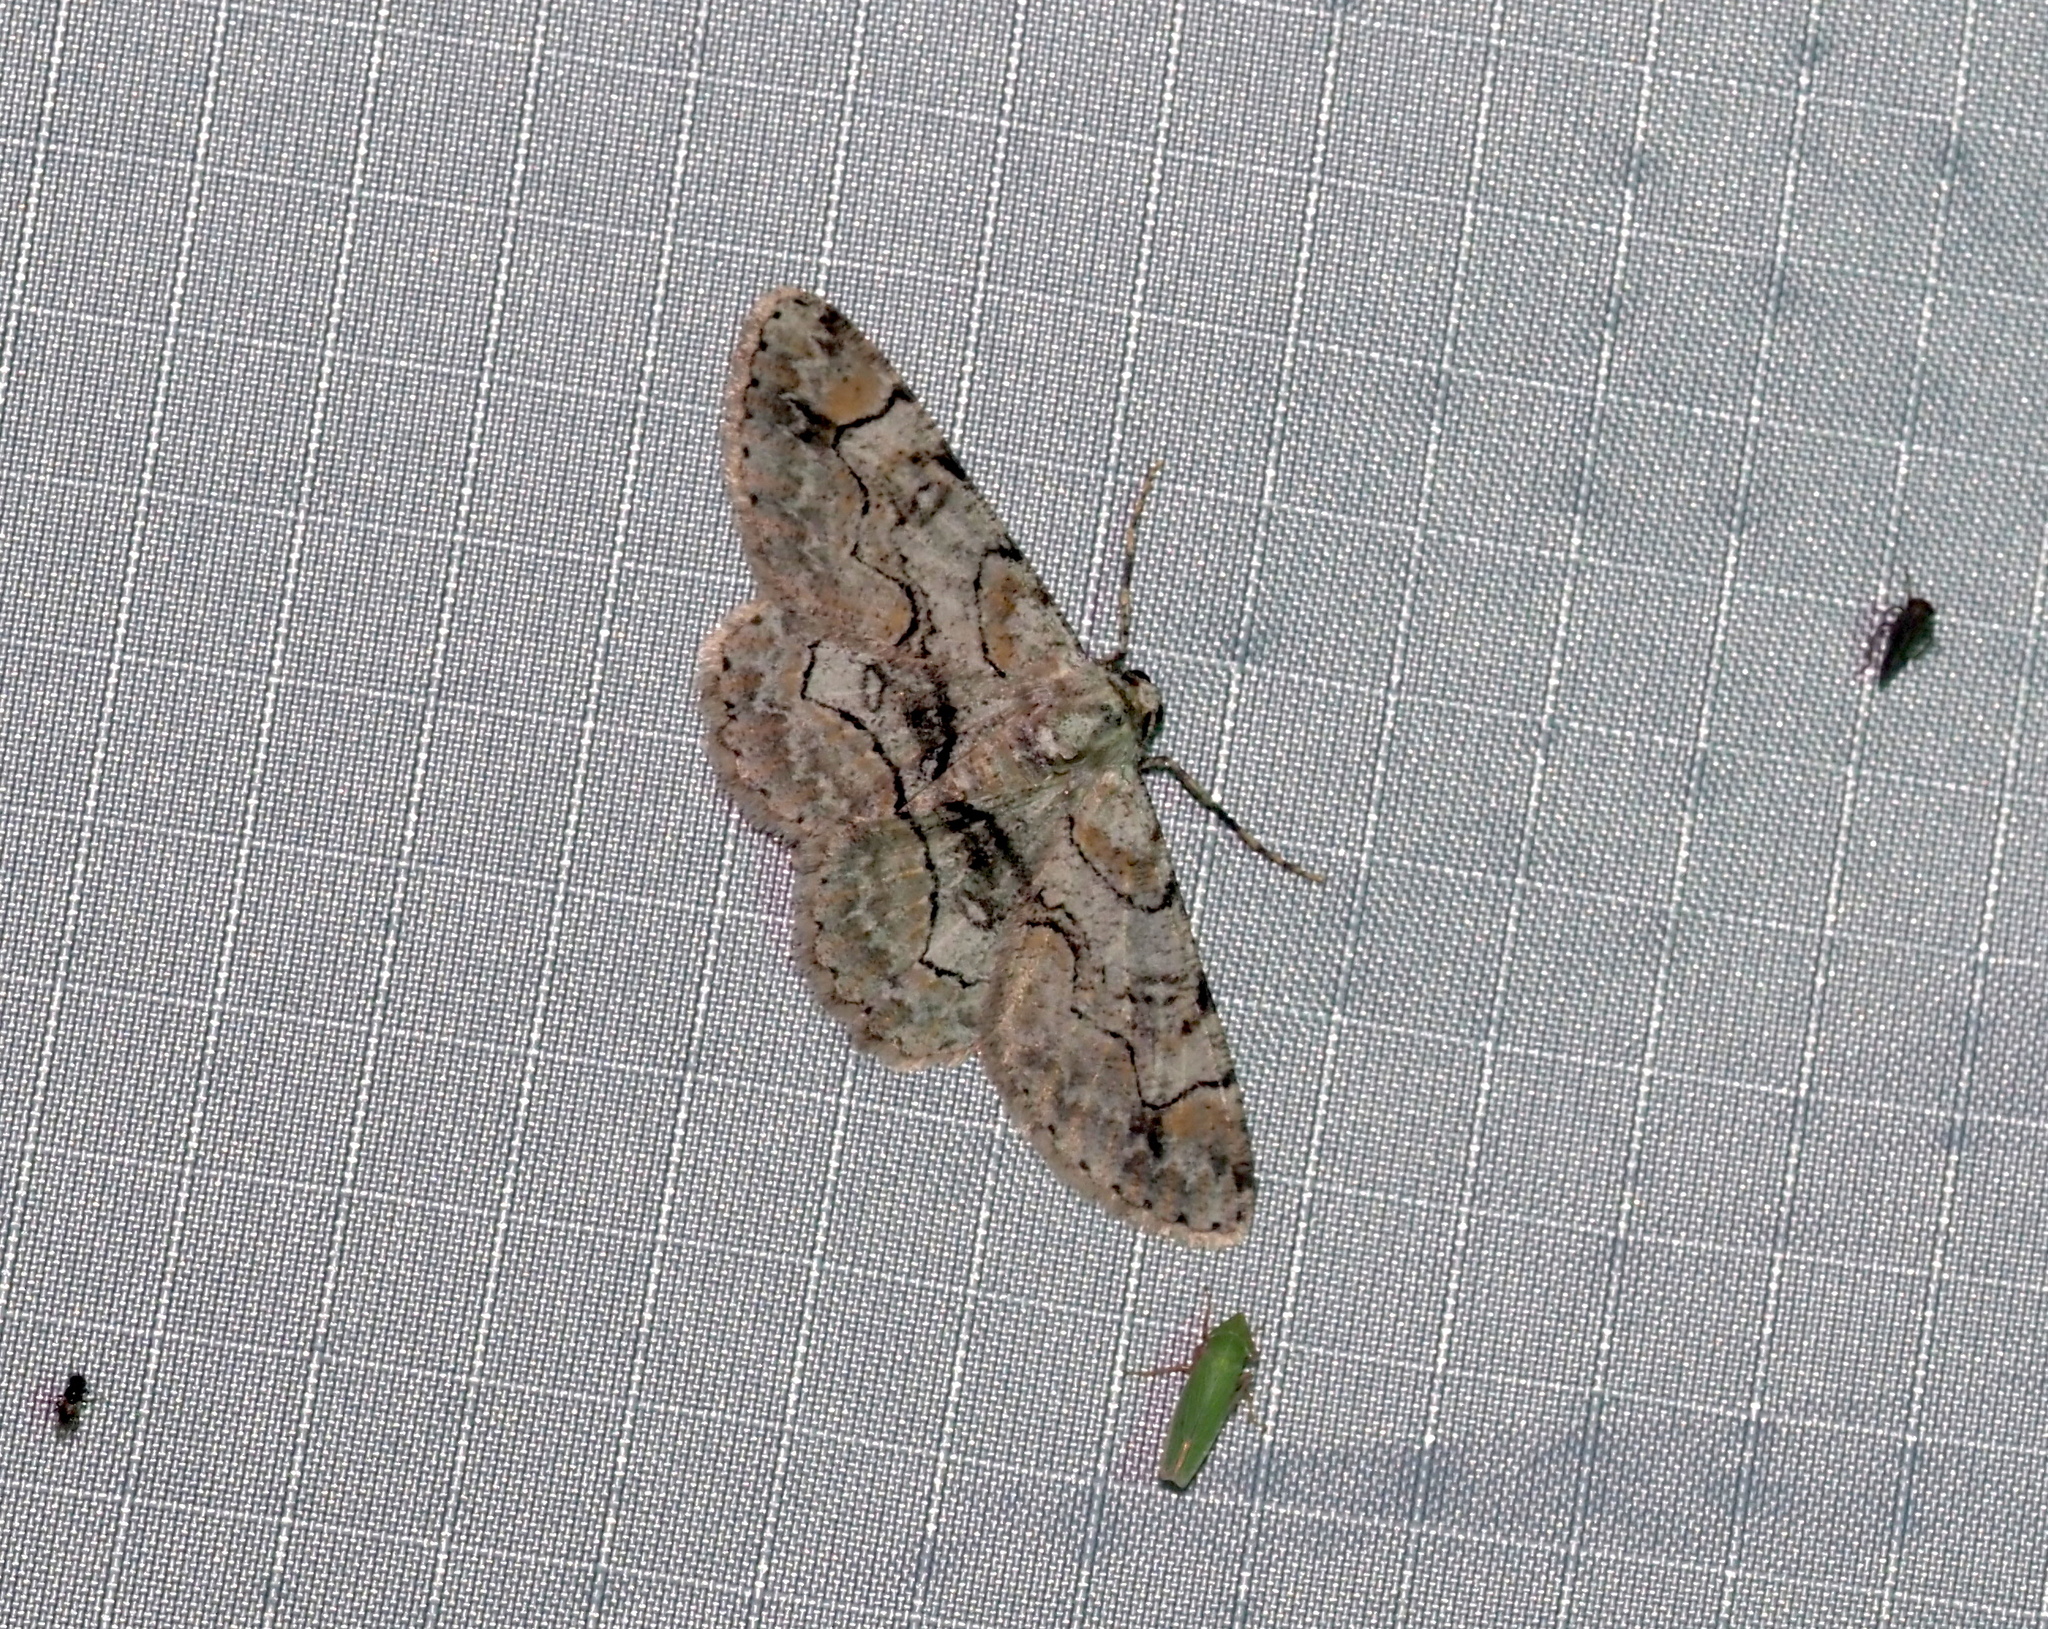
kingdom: Animalia
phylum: Arthropoda
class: Insecta
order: Lepidoptera
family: Geometridae
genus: Iridopsis
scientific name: Iridopsis larvaria
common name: Bent-line gray
